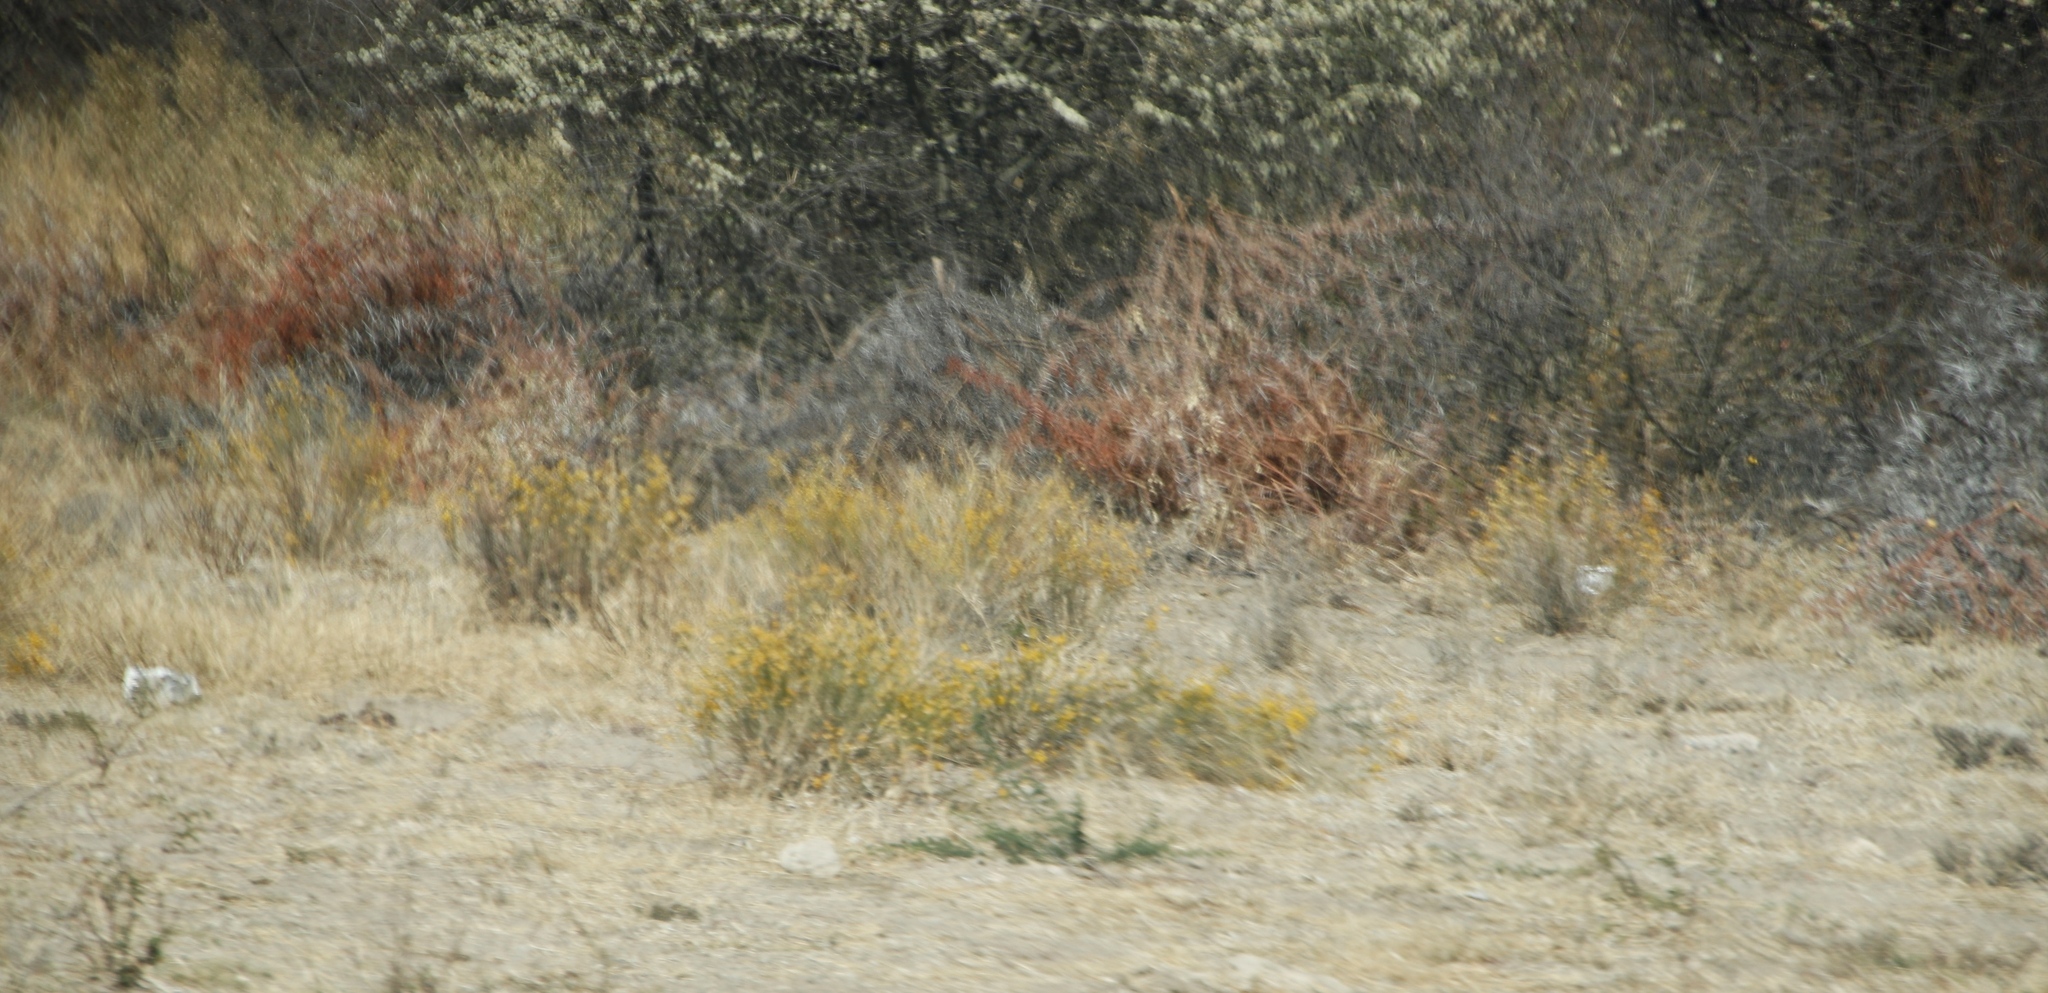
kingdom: Plantae
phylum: Tracheophyta
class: Magnoliopsida
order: Malvales
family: Thymelaeaceae
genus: Gnidia
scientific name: Gnidia polycephala
